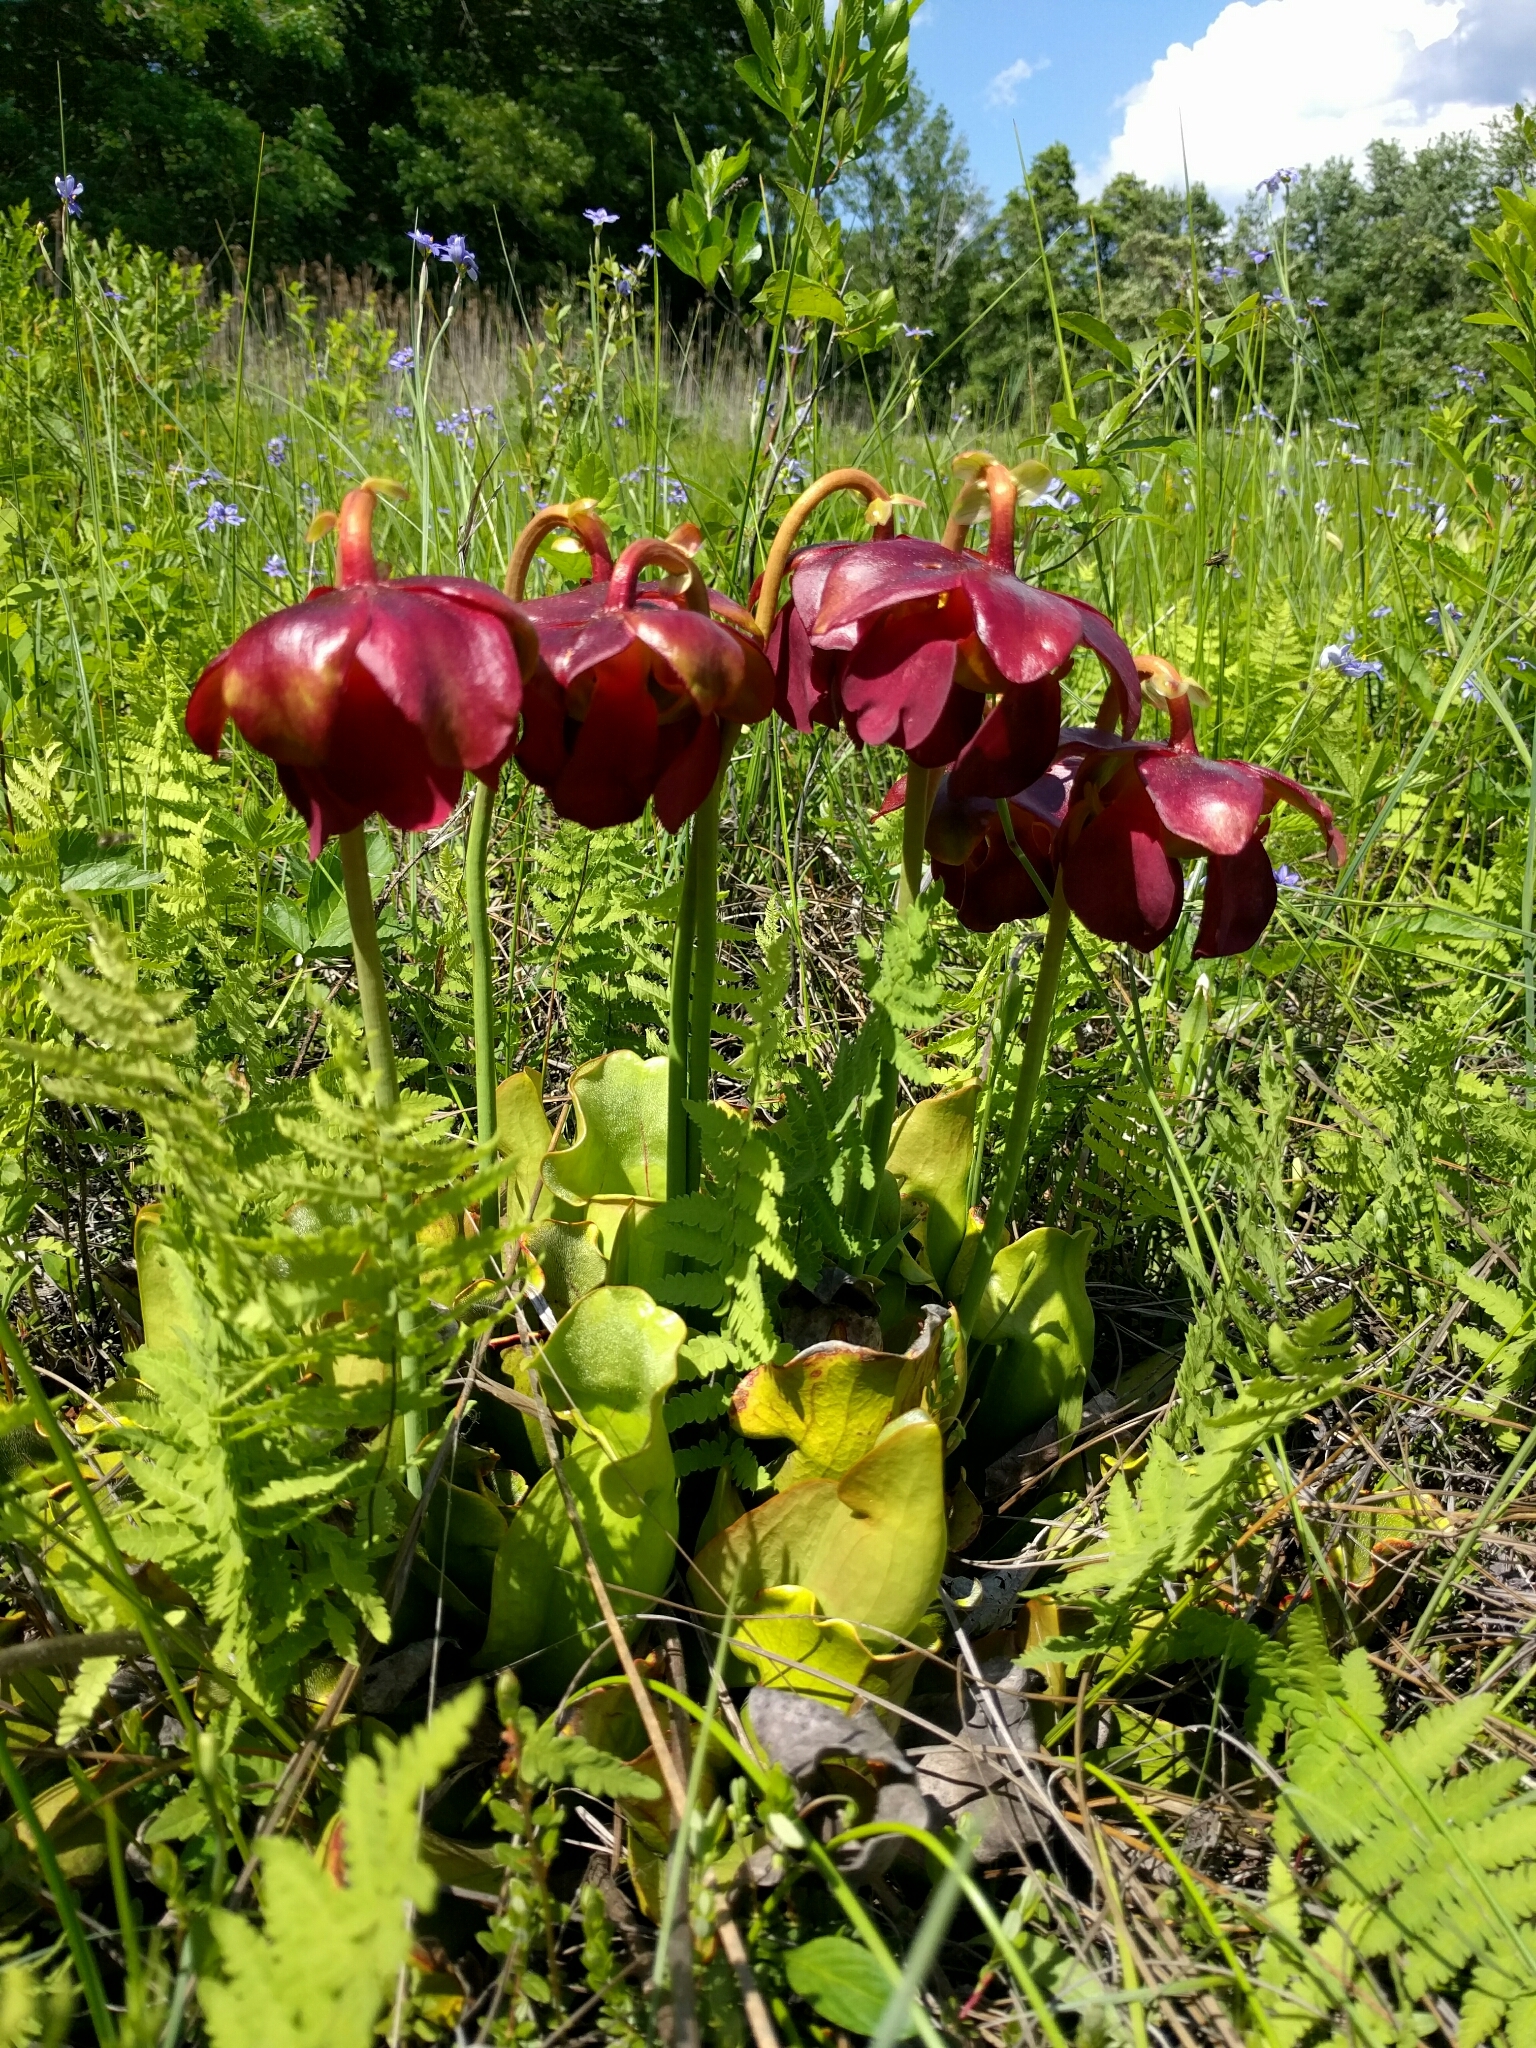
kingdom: Plantae
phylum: Tracheophyta
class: Magnoliopsida
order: Ericales
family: Sarraceniaceae
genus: Sarracenia
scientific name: Sarracenia purpurea
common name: Pitcherplant
